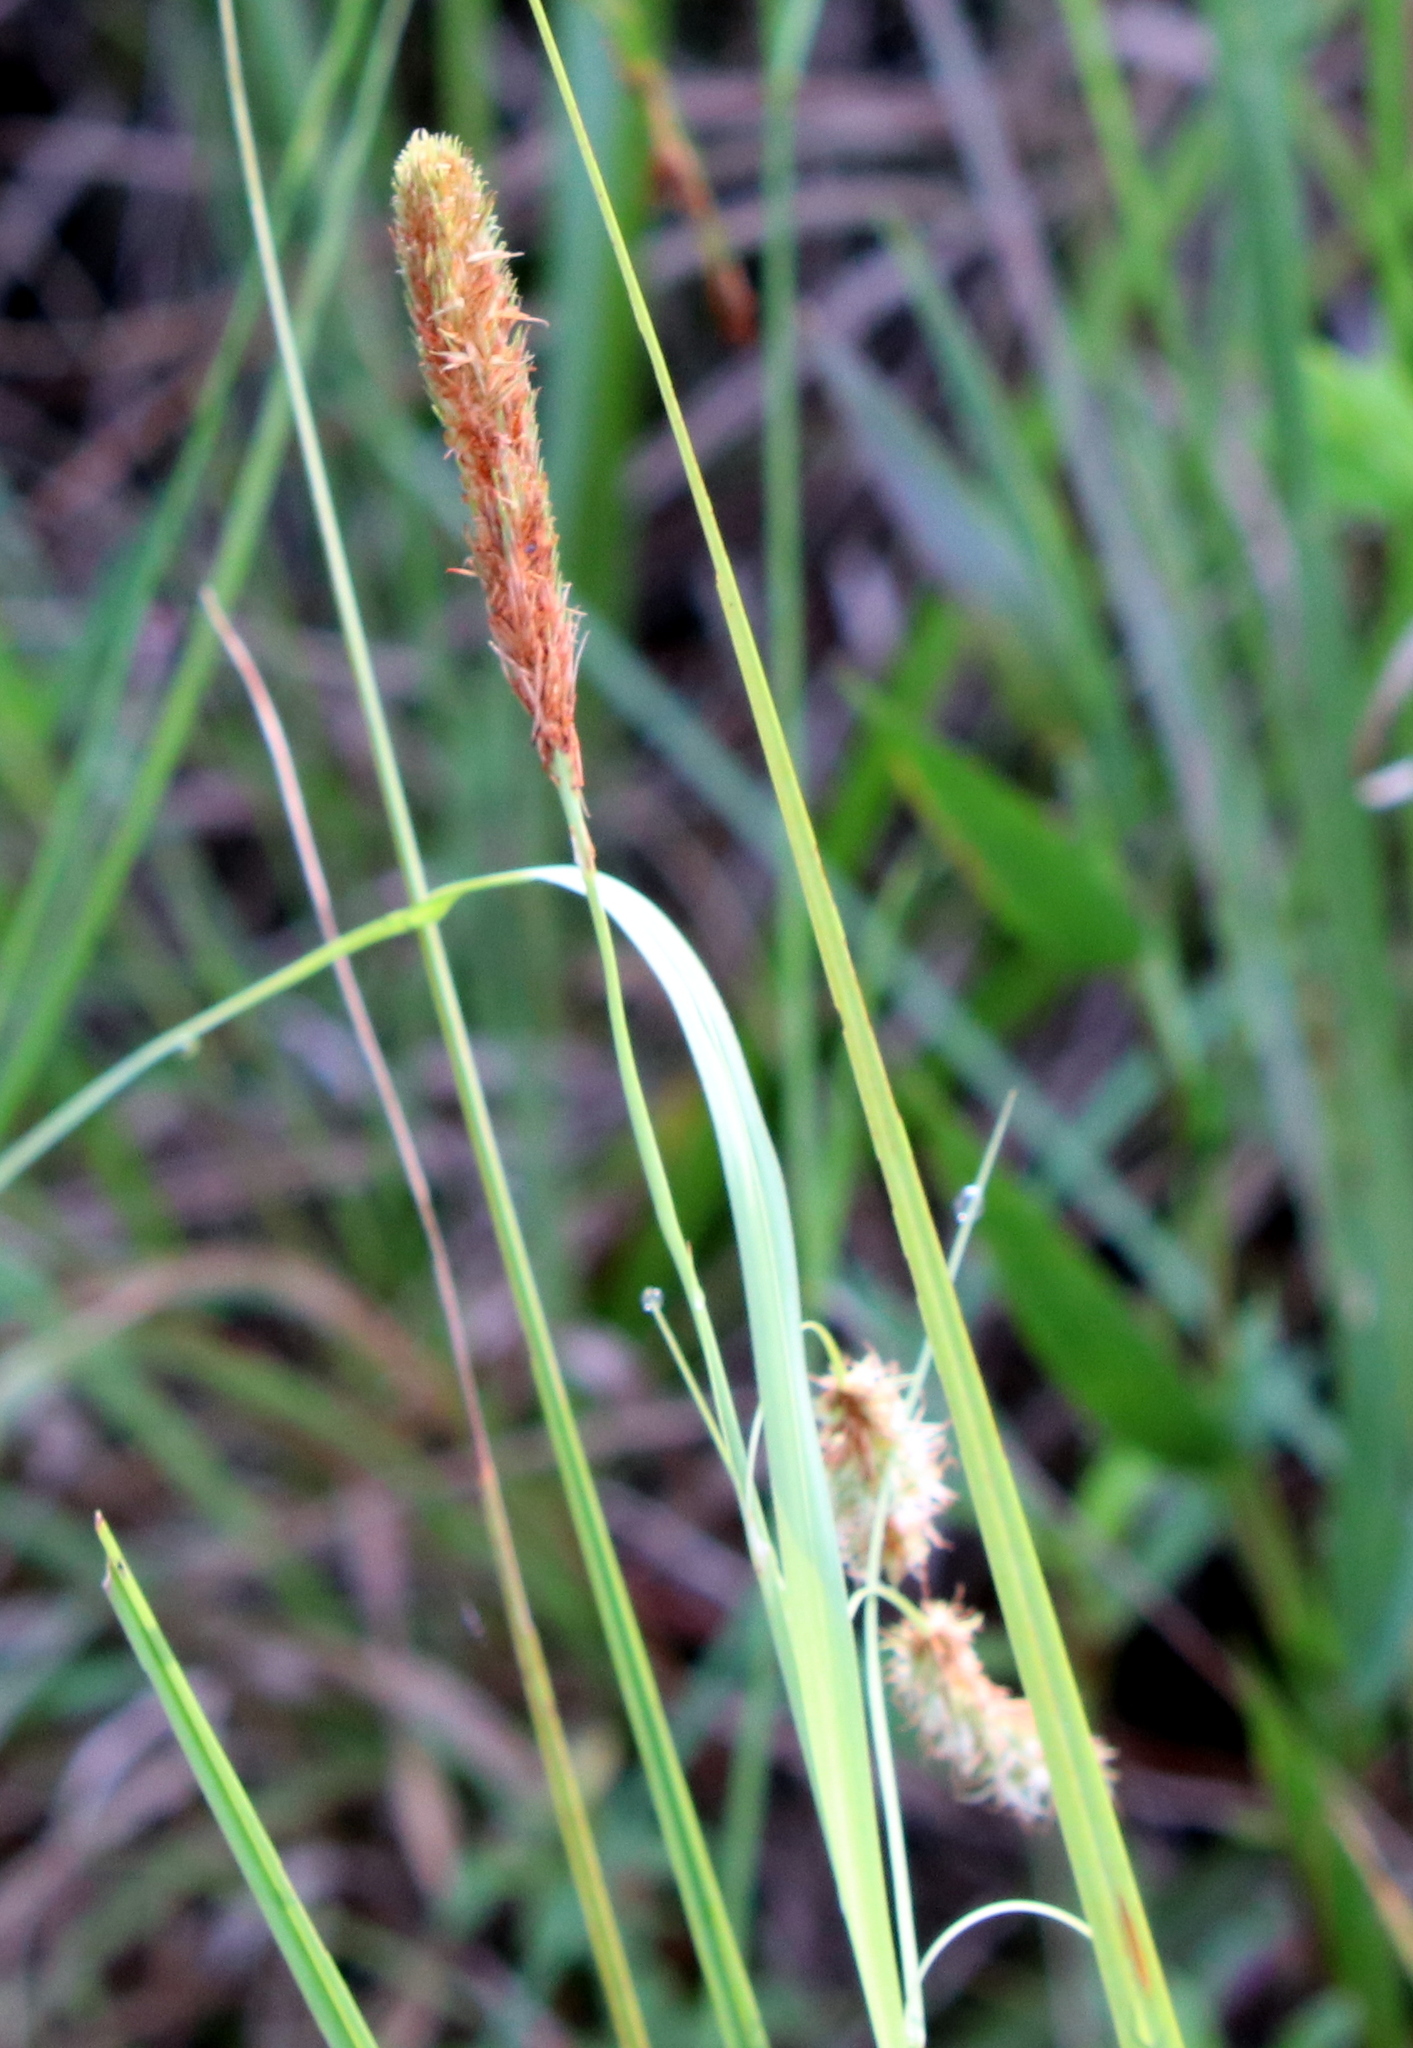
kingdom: Plantae
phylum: Tracheophyta
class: Liliopsida
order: Poales
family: Cyperaceae
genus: Carex
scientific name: Carex glaucescens
